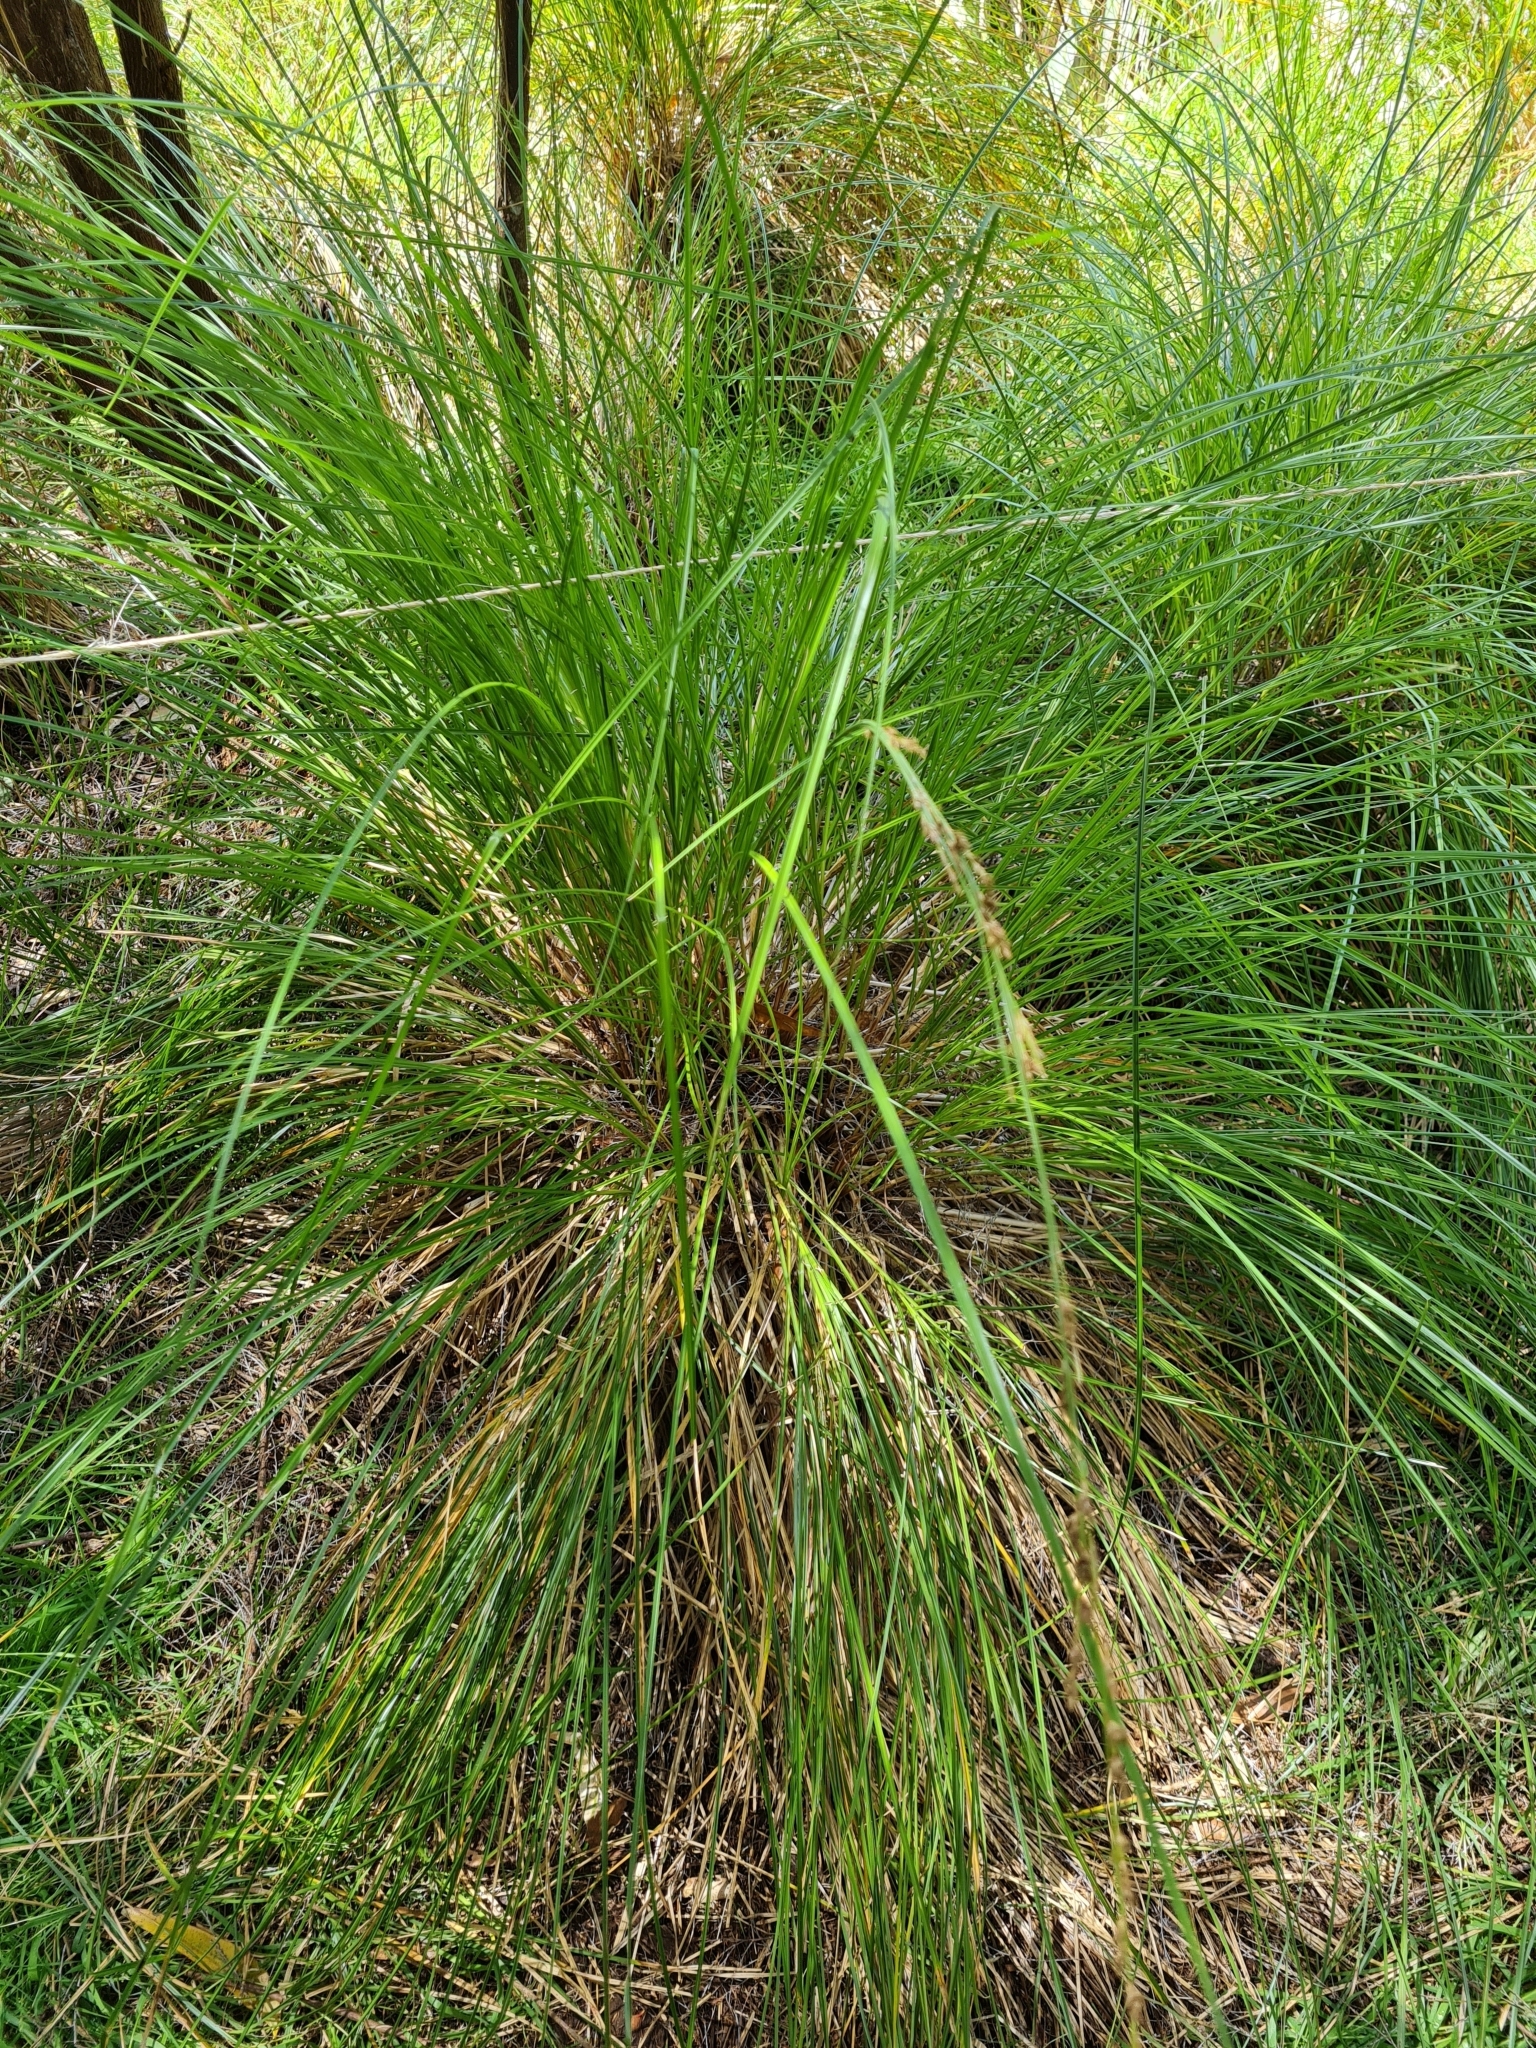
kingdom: Plantae
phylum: Tracheophyta
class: Liliopsida
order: Poales
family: Cyperaceae
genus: Carex
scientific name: Carex secta
